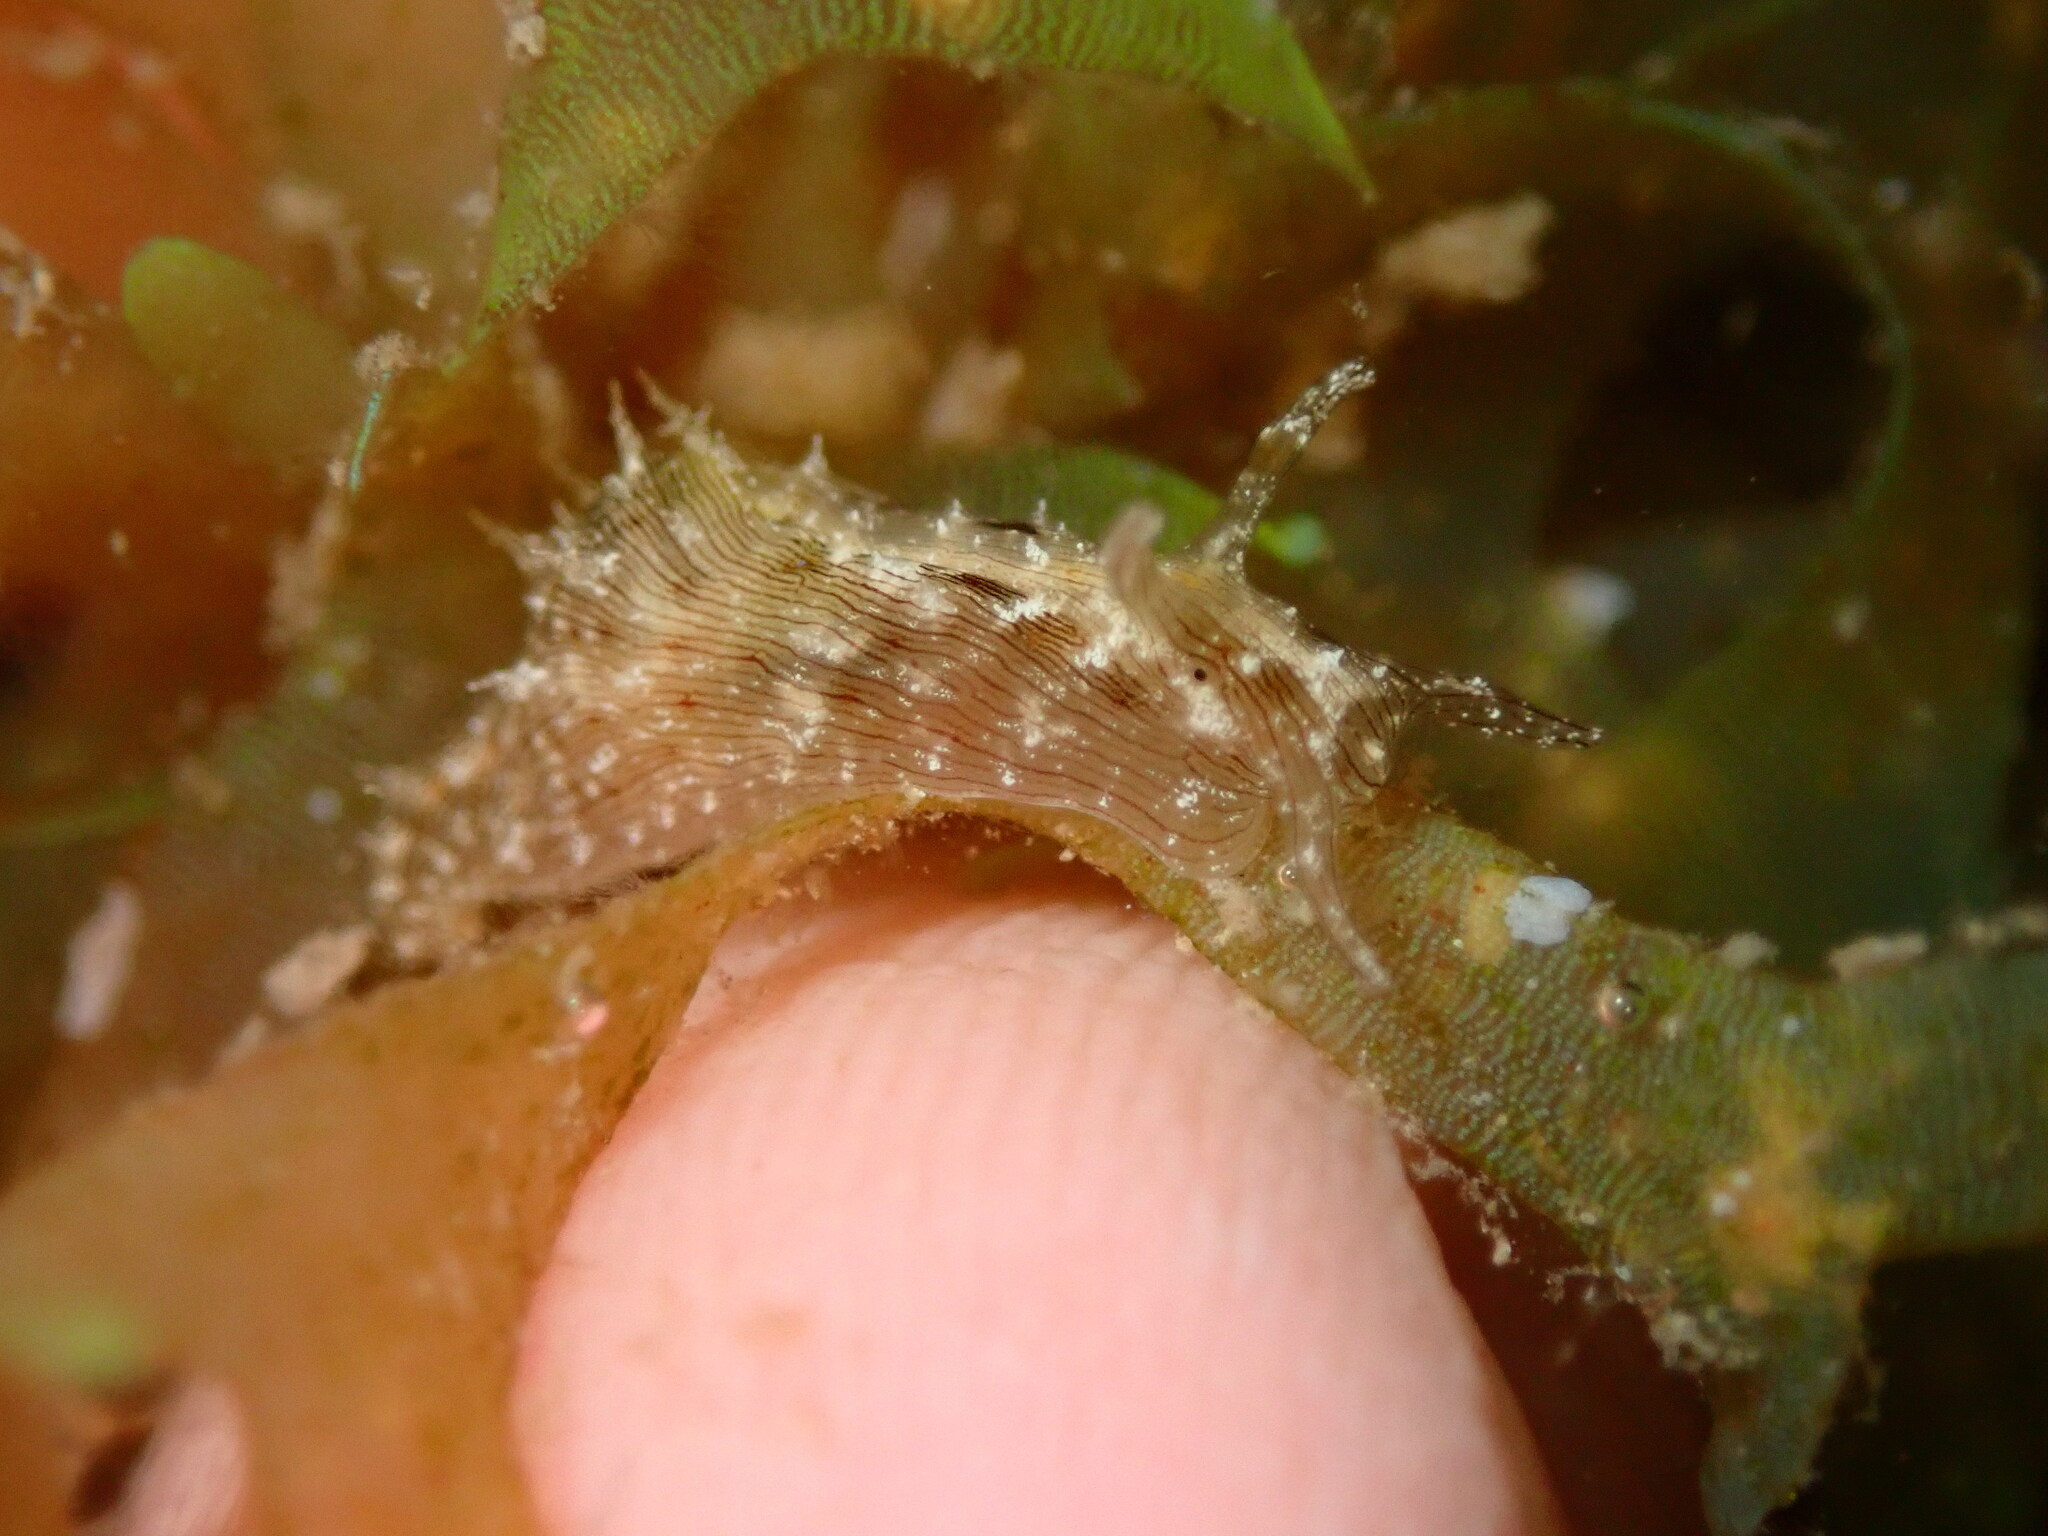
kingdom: Animalia
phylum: Mollusca
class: Gastropoda
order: Aplysiida
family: Aplysiidae
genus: Stylocheilus
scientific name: Stylocheilus striatus
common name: Striated seahare
